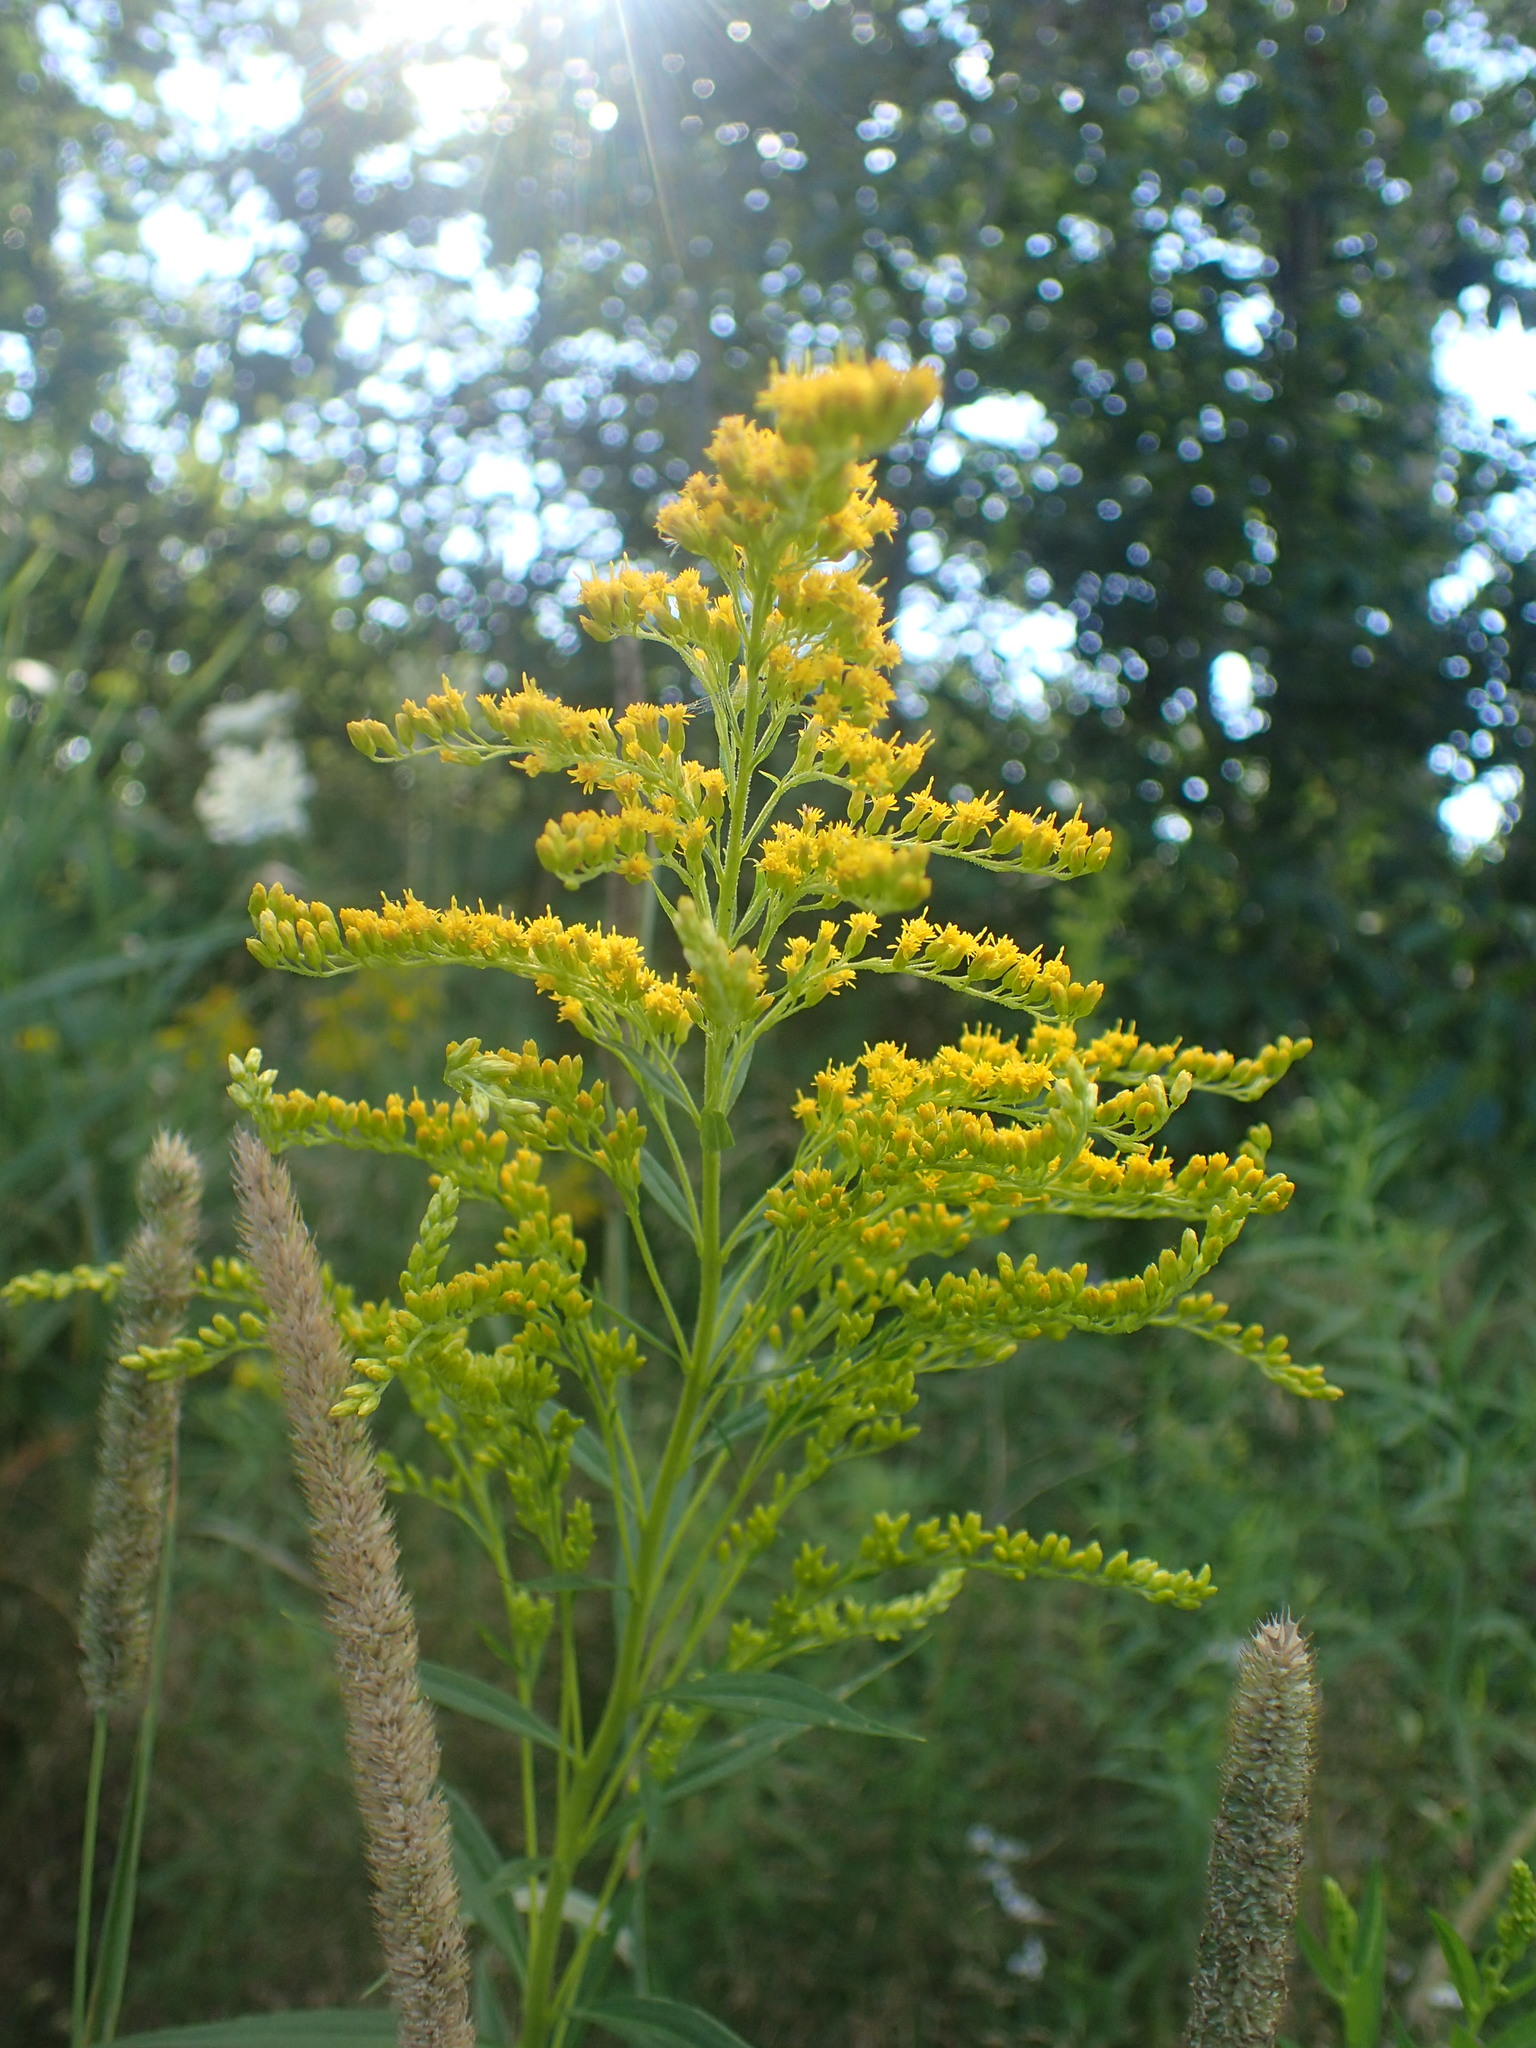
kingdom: Plantae
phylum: Tracheophyta
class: Magnoliopsida
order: Asterales
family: Asteraceae
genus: Solidago
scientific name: Solidago canadensis
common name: Canada goldenrod
